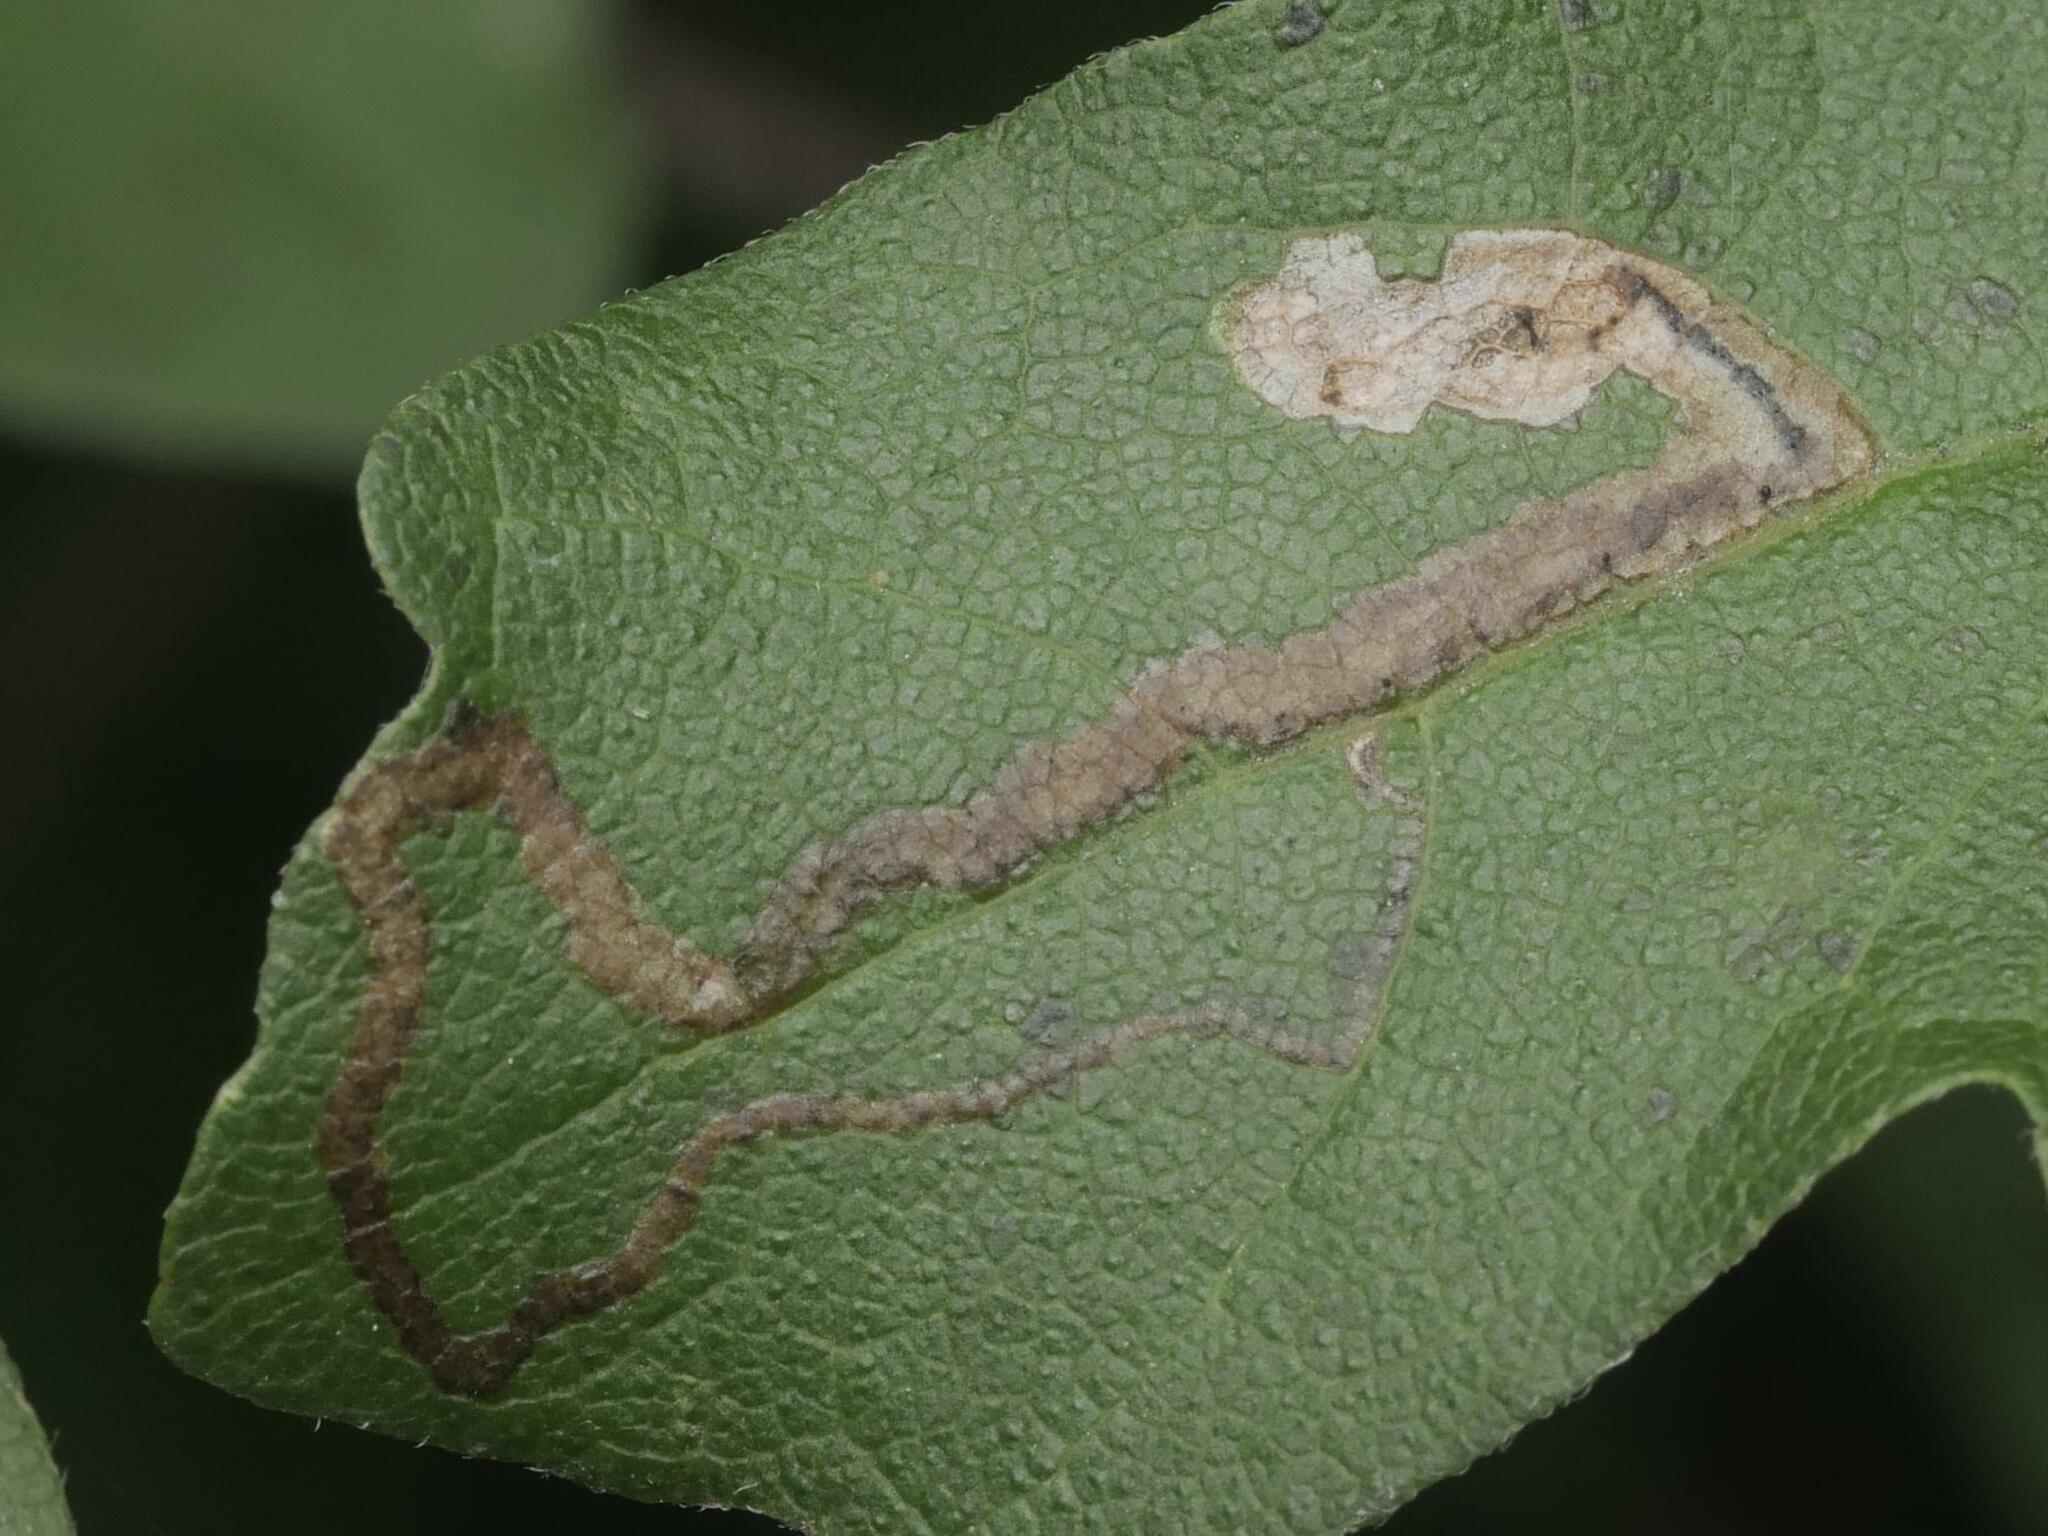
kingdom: Animalia
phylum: Arthropoda
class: Insecta
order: Lepidoptera
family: Nepticulidae
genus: Stigmella
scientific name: Stigmella aceris
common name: Scarce maple pigmy
